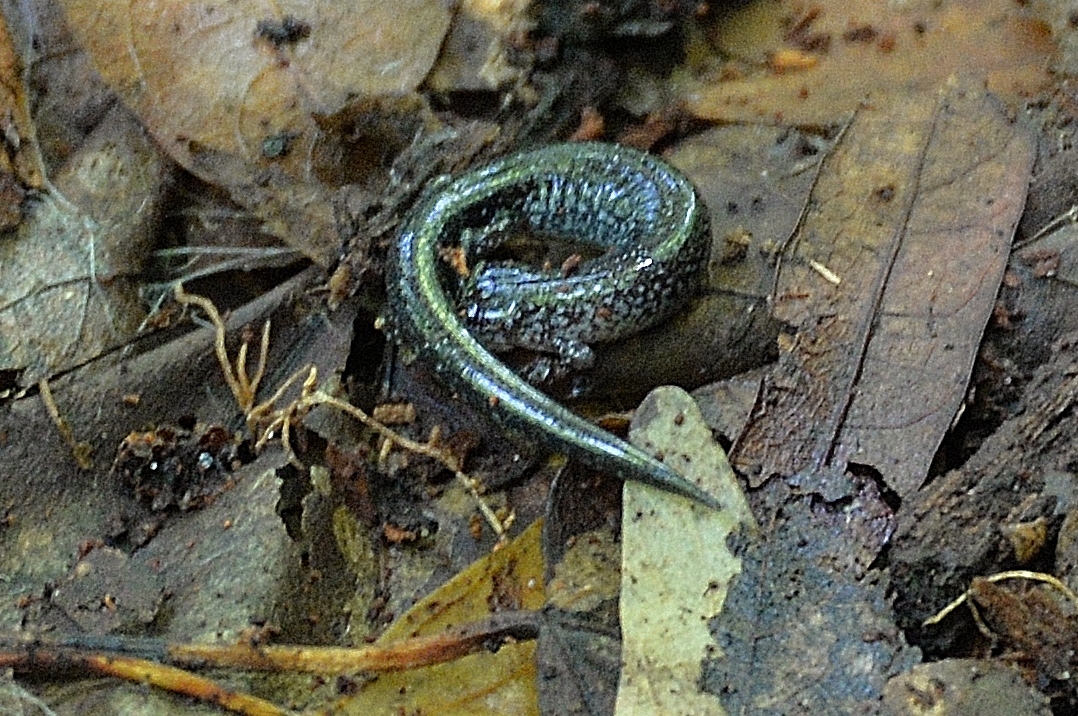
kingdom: Animalia
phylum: Chordata
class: Amphibia
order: Caudata
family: Plethodontidae
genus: Plethodon
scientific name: Plethodon cinereus
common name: Redback salamander
